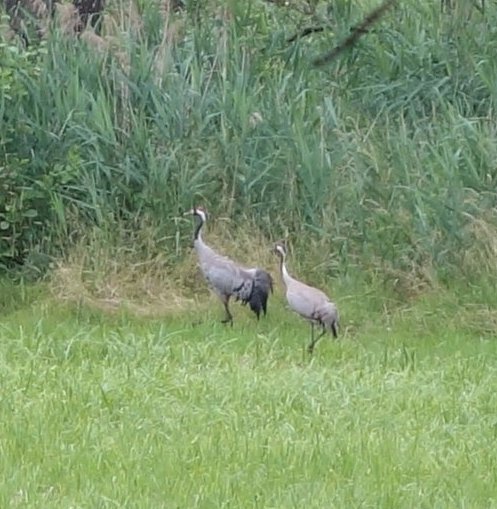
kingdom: Animalia
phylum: Chordata
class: Aves
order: Gruiformes
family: Gruidae
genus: Grus
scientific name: Grus grus
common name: Common crane
